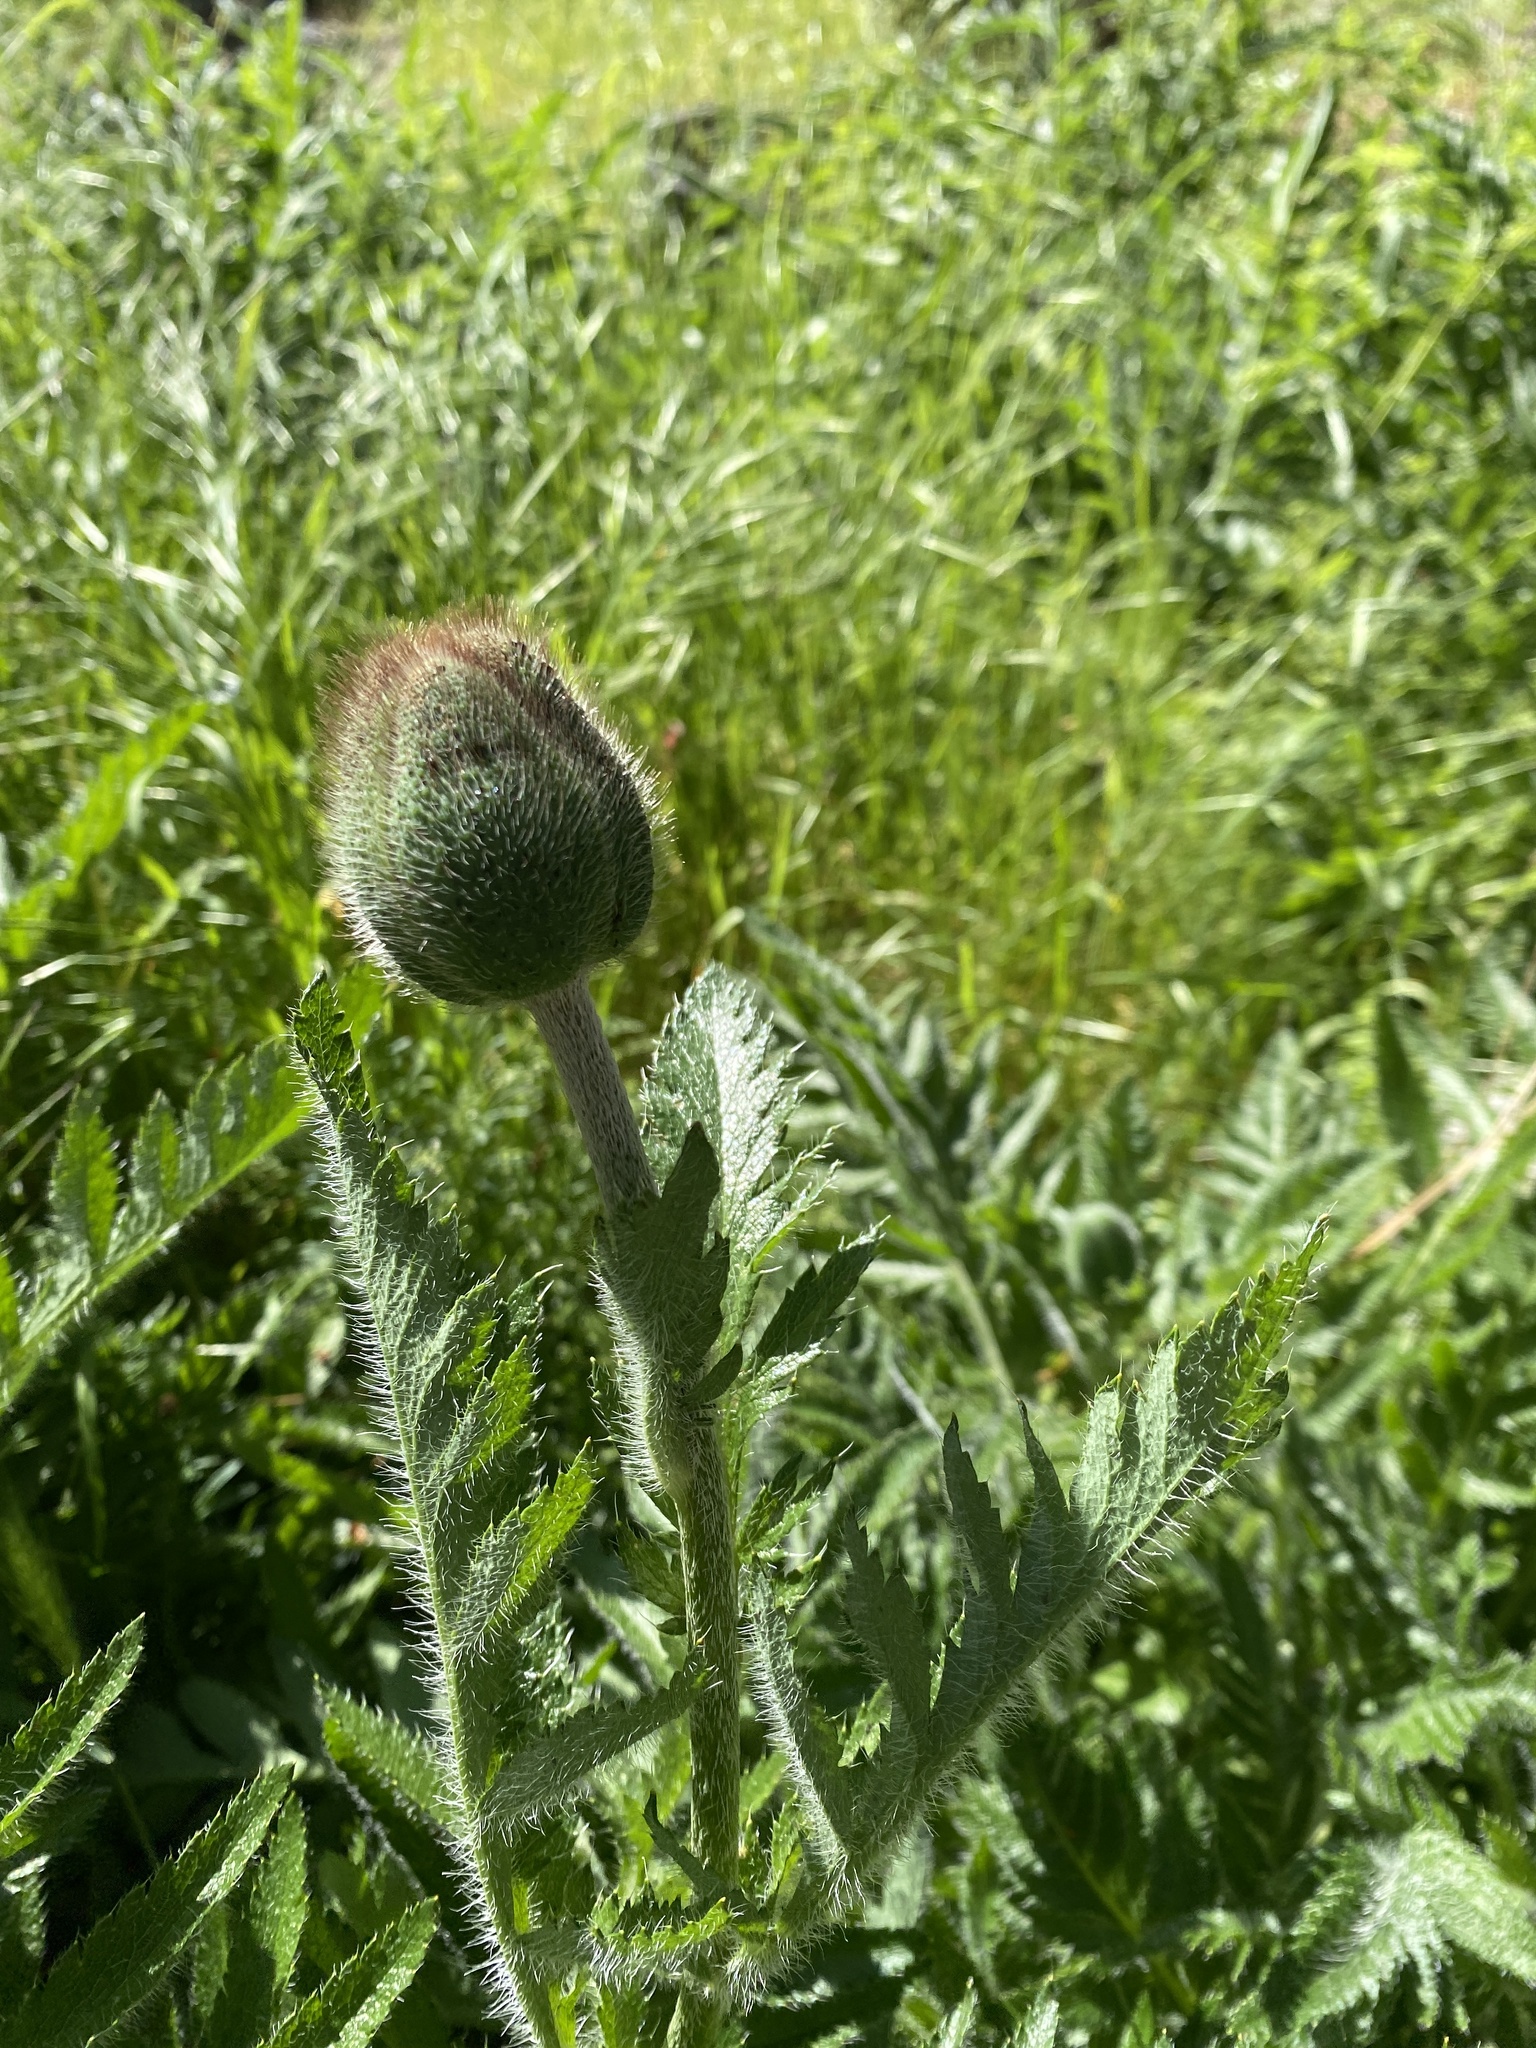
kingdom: Plantae
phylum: Tracheophyta
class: Magnoliopsida
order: Ranunculales
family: Papaveraceae
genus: Papaver
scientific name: Papaver orientale
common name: Oriental poppy
